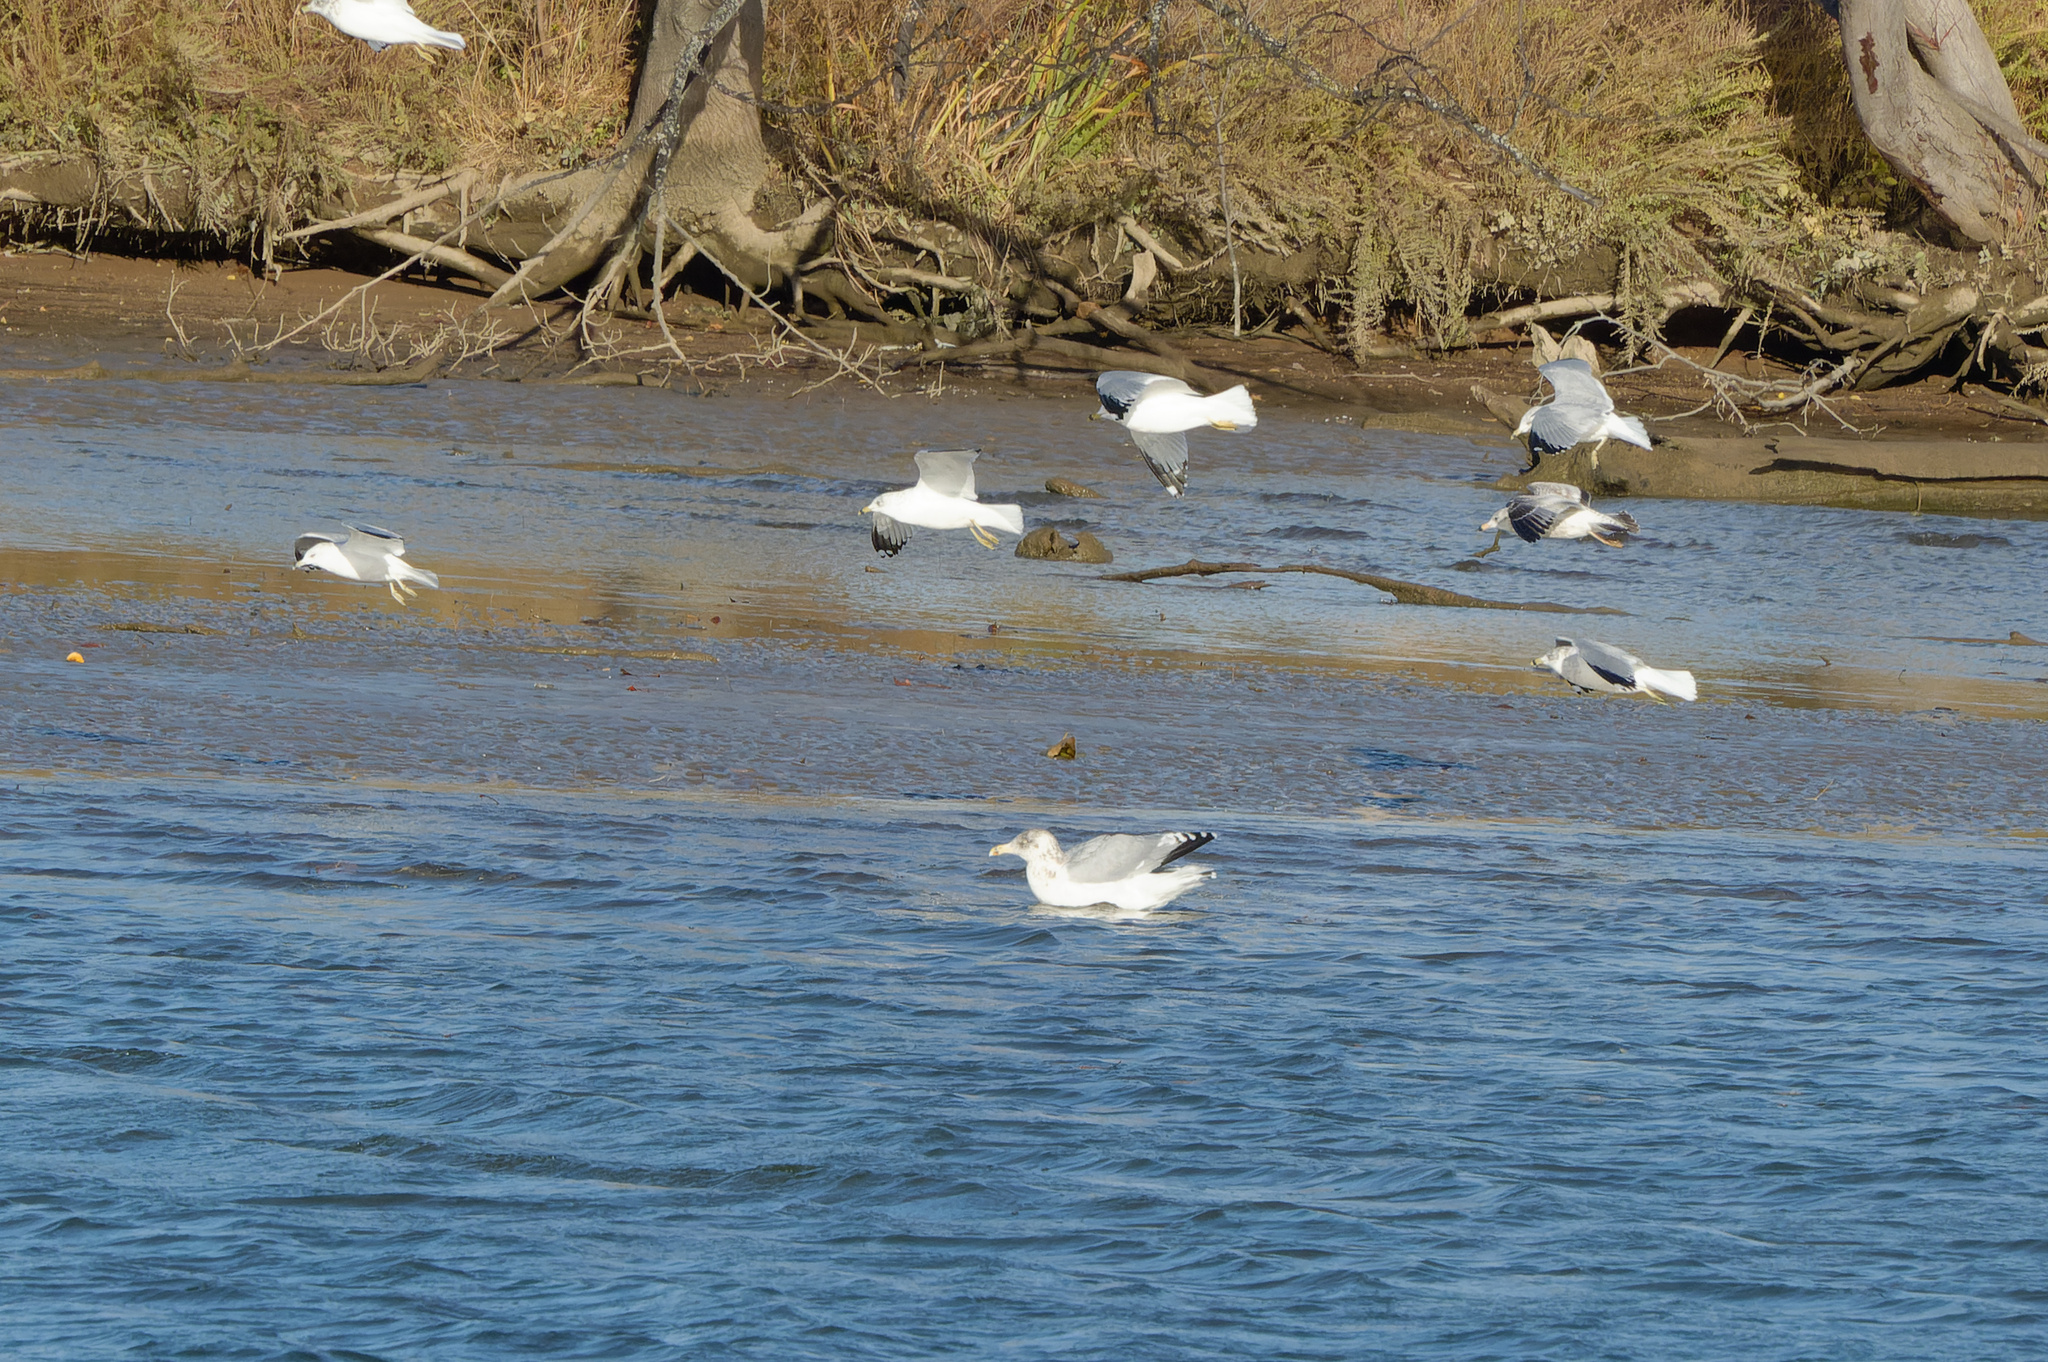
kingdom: Animalia
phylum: Chordata
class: Aves
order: Charadriiformes
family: Laridae
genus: Larus
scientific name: Larus smithsonianus
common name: American herring gull
